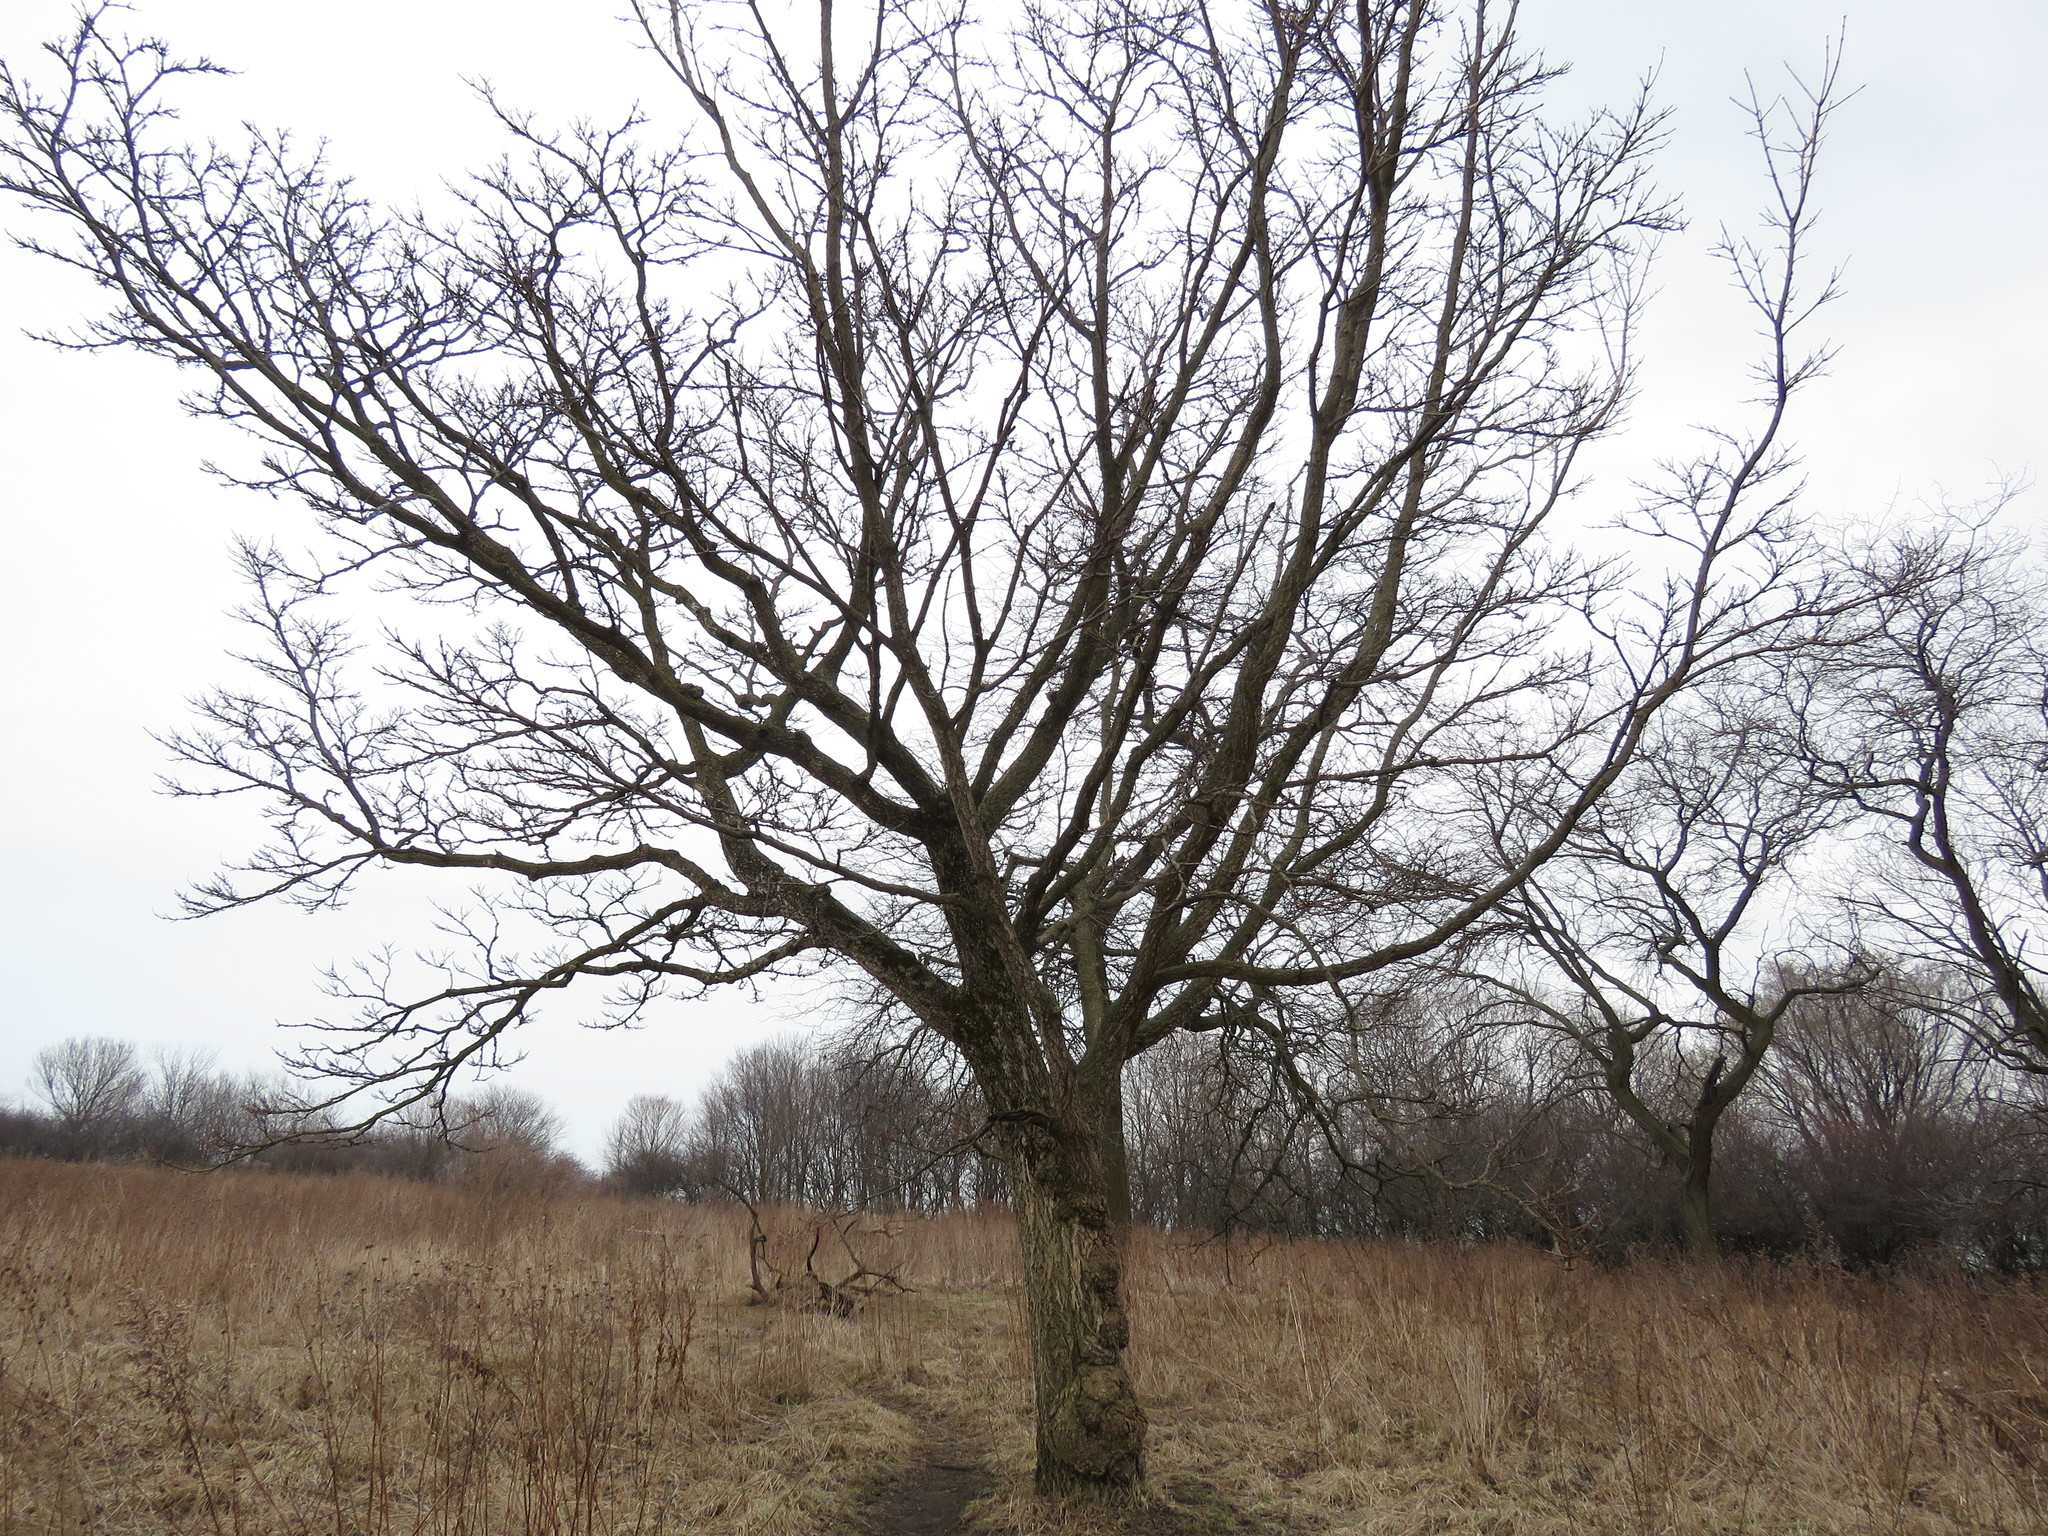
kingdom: Plantae
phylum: Tracheophyta
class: Magnoliopsida
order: Sapindales
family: Rutaceae
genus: Phellodendron
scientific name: Phellodendron amurense
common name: Amur corktree
